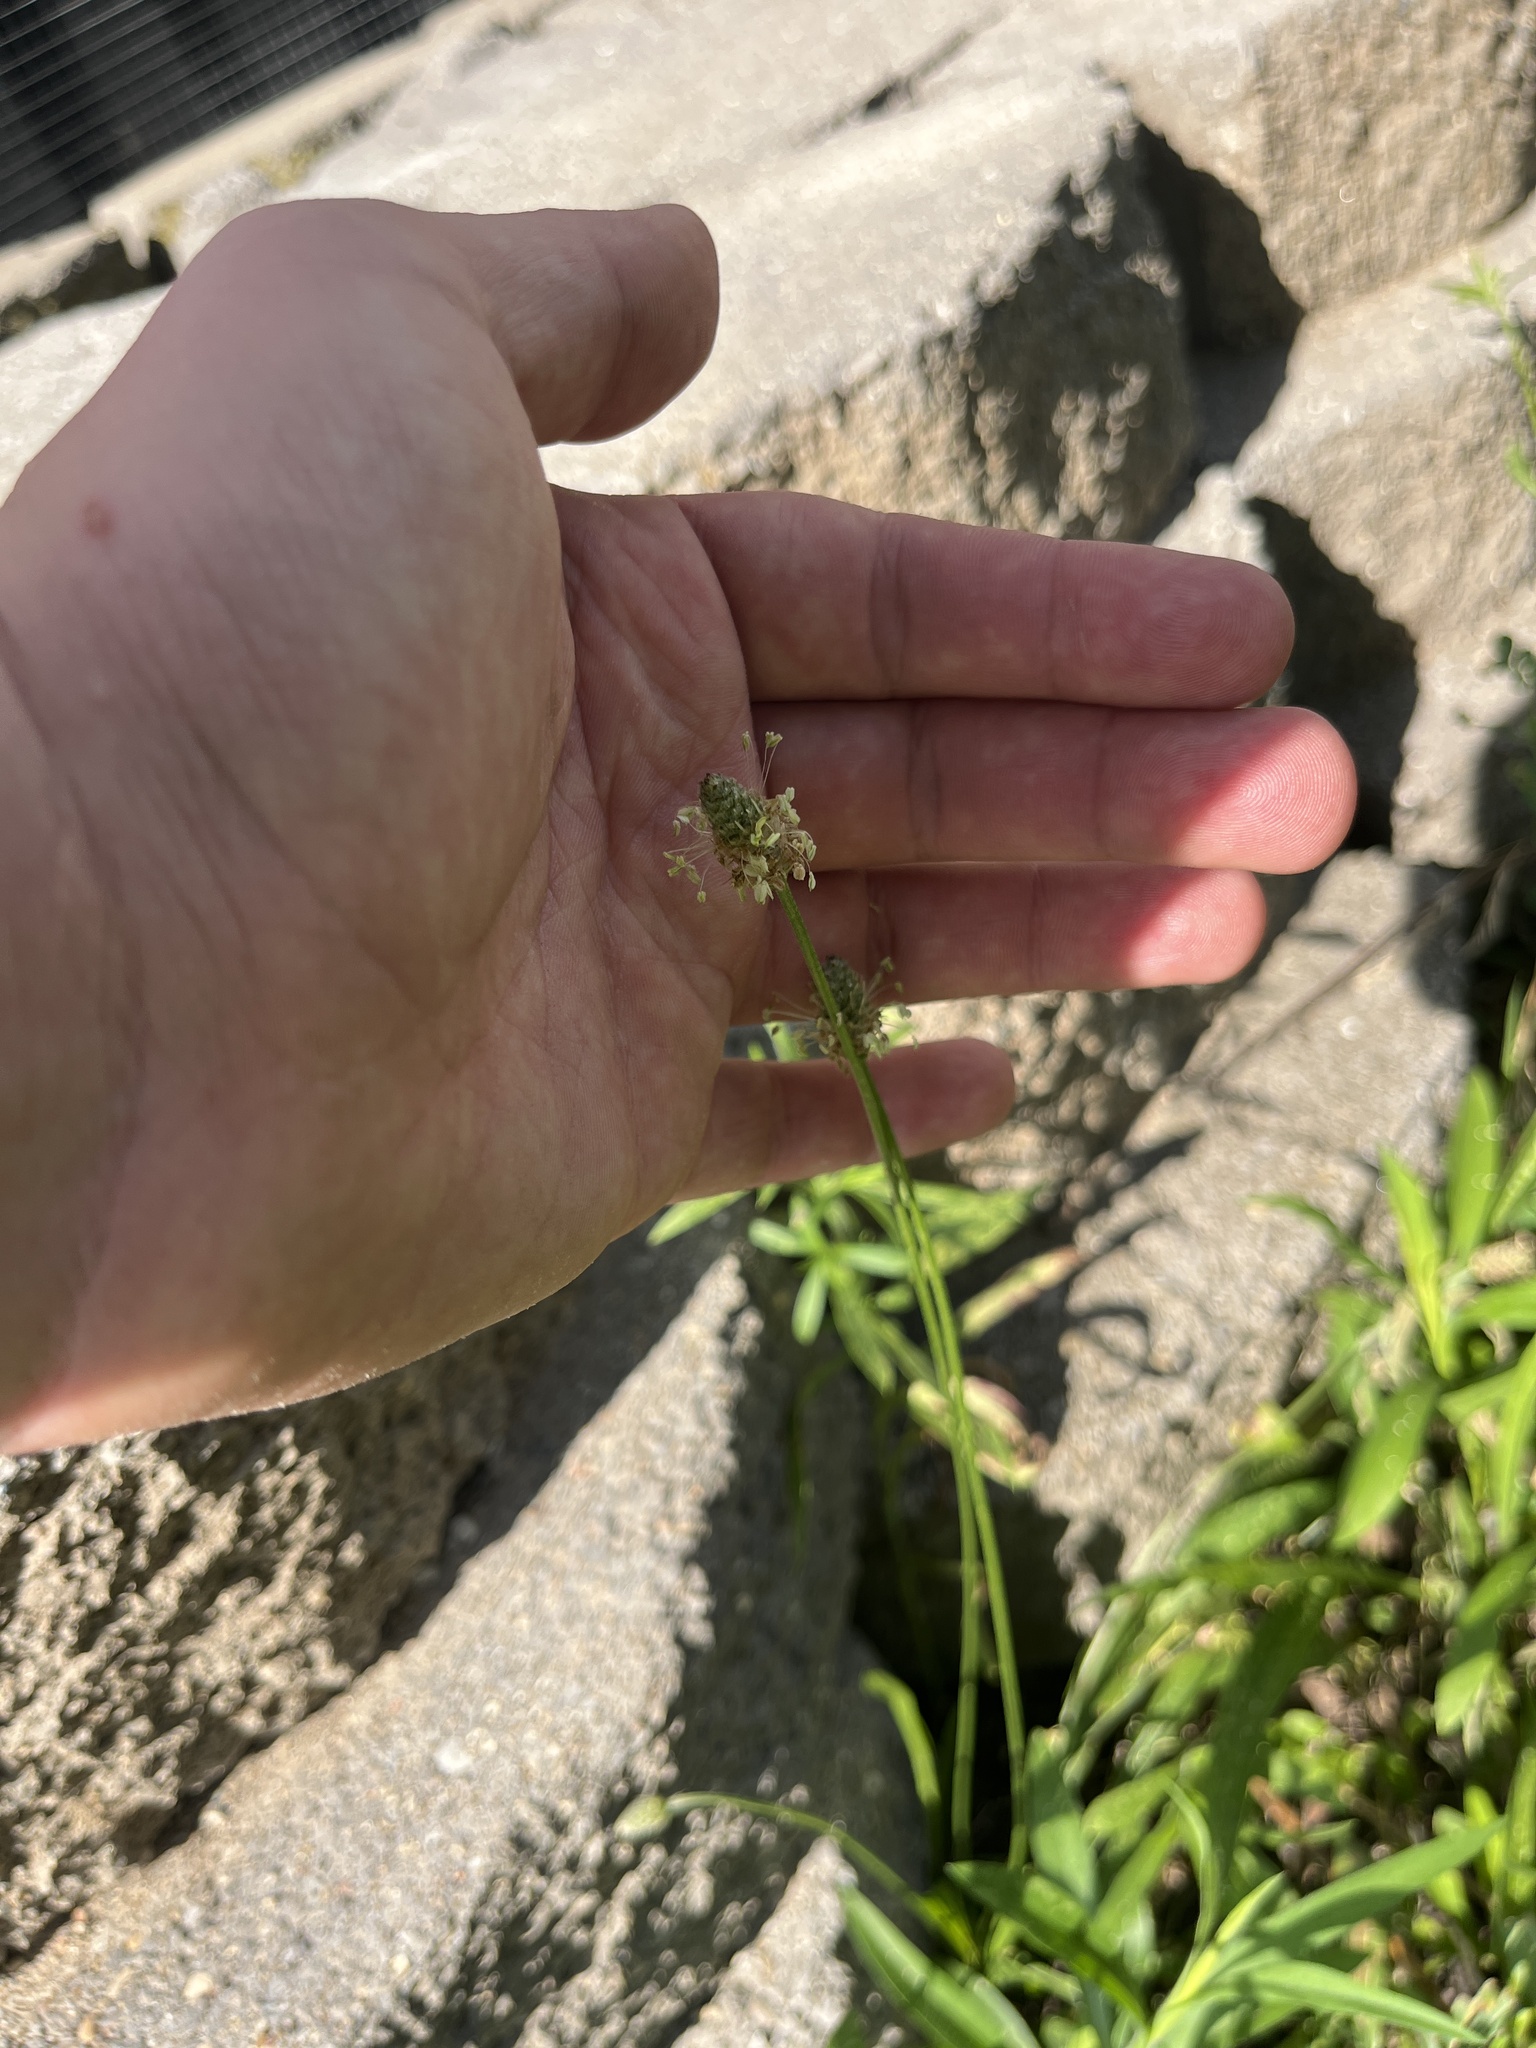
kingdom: Plantae
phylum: Tracheophyta
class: Magnoliopsida
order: Lamiales
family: Plantaginaceae
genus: Plantago
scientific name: Plantago lanceolata
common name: Ribwort plantain
